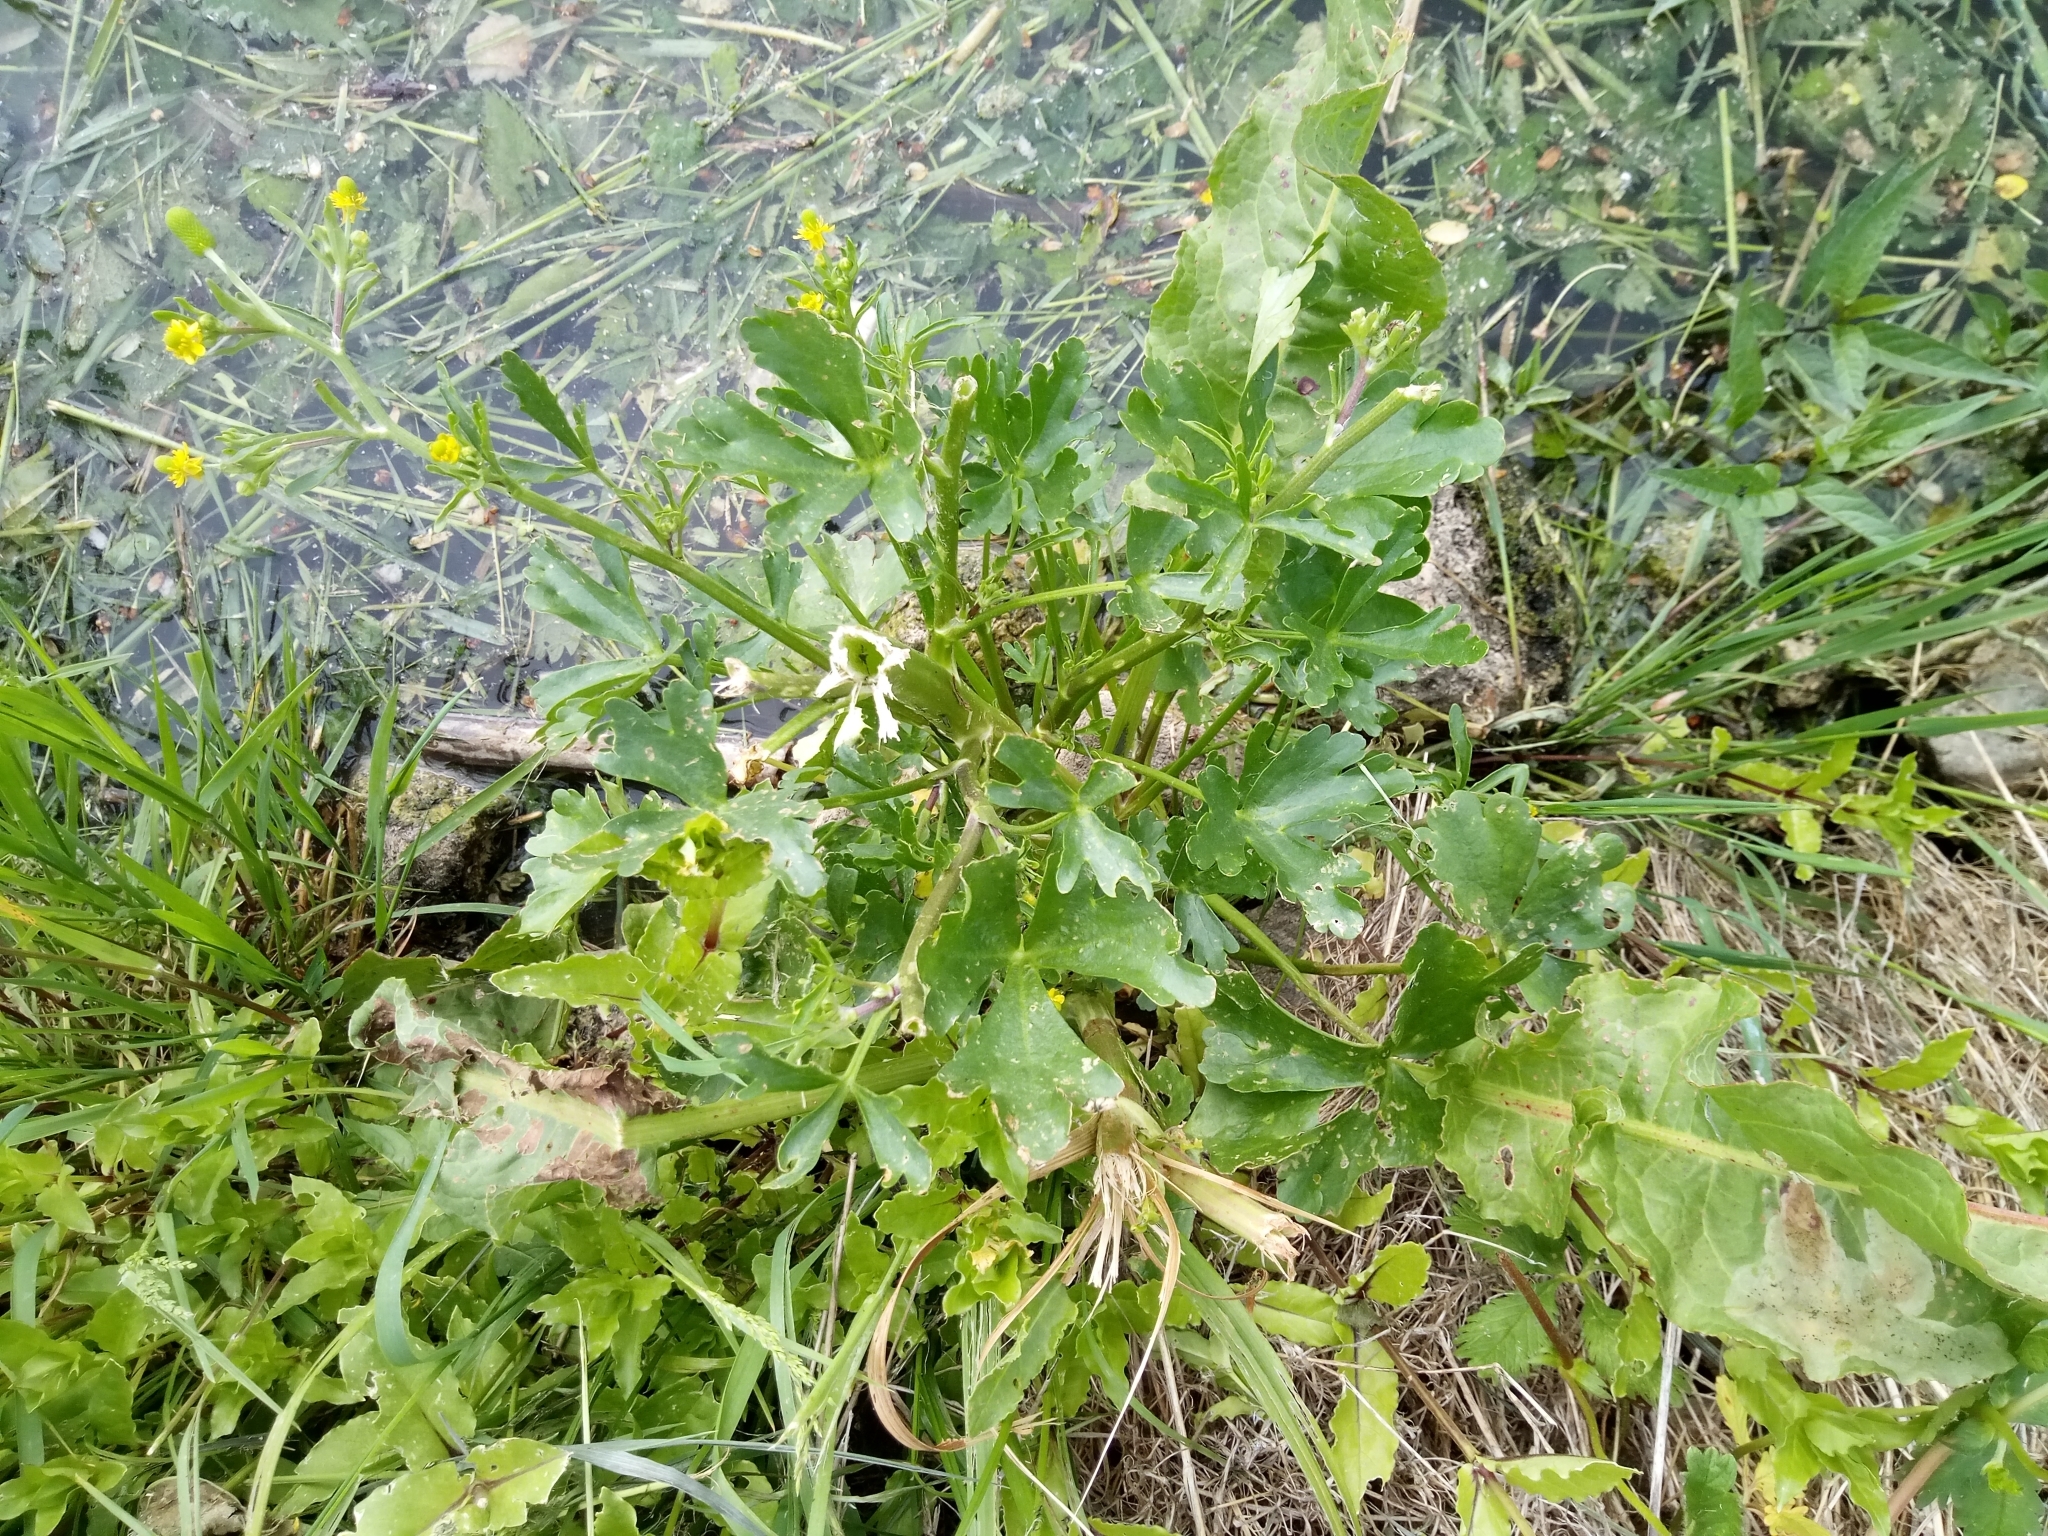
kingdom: Plantae
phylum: Tracheophyta
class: Magnoliopsida
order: Ranunculales
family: Ranunculaceae
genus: Ranunculus
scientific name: Ranunculus sceleratus
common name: Celery-leaved buttercup
